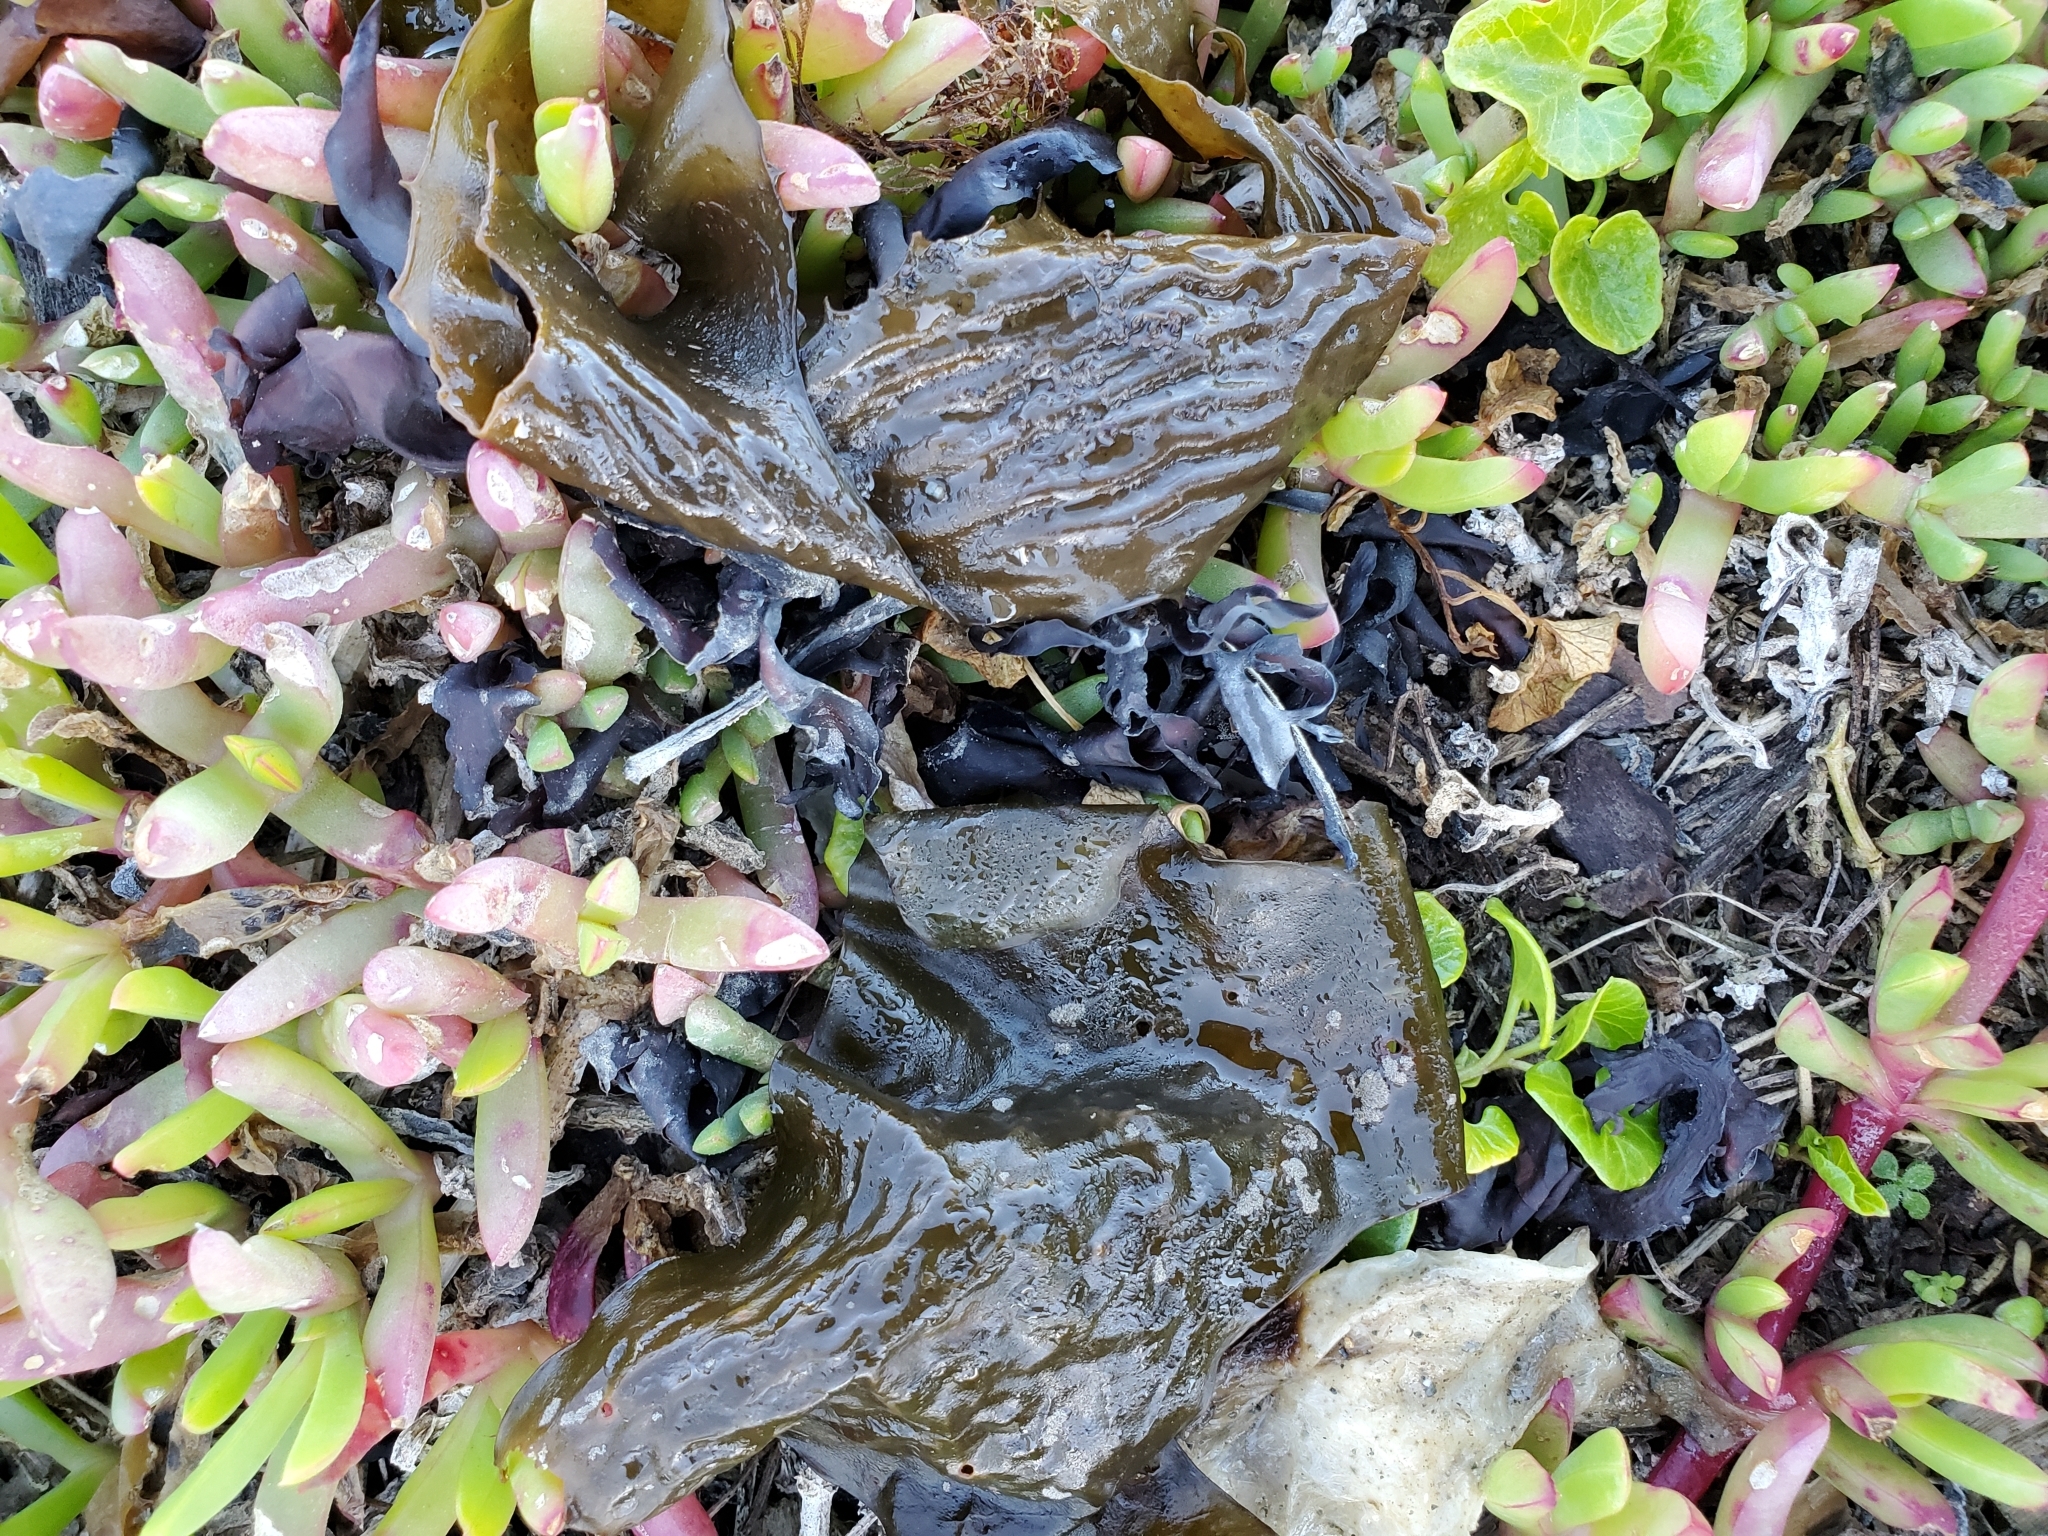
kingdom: Chromista
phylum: Ochrophyta
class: Phaeophyceae
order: Laminariales
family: Laminariaceae
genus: Macrocystis
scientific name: Macrocystis pyrifera
